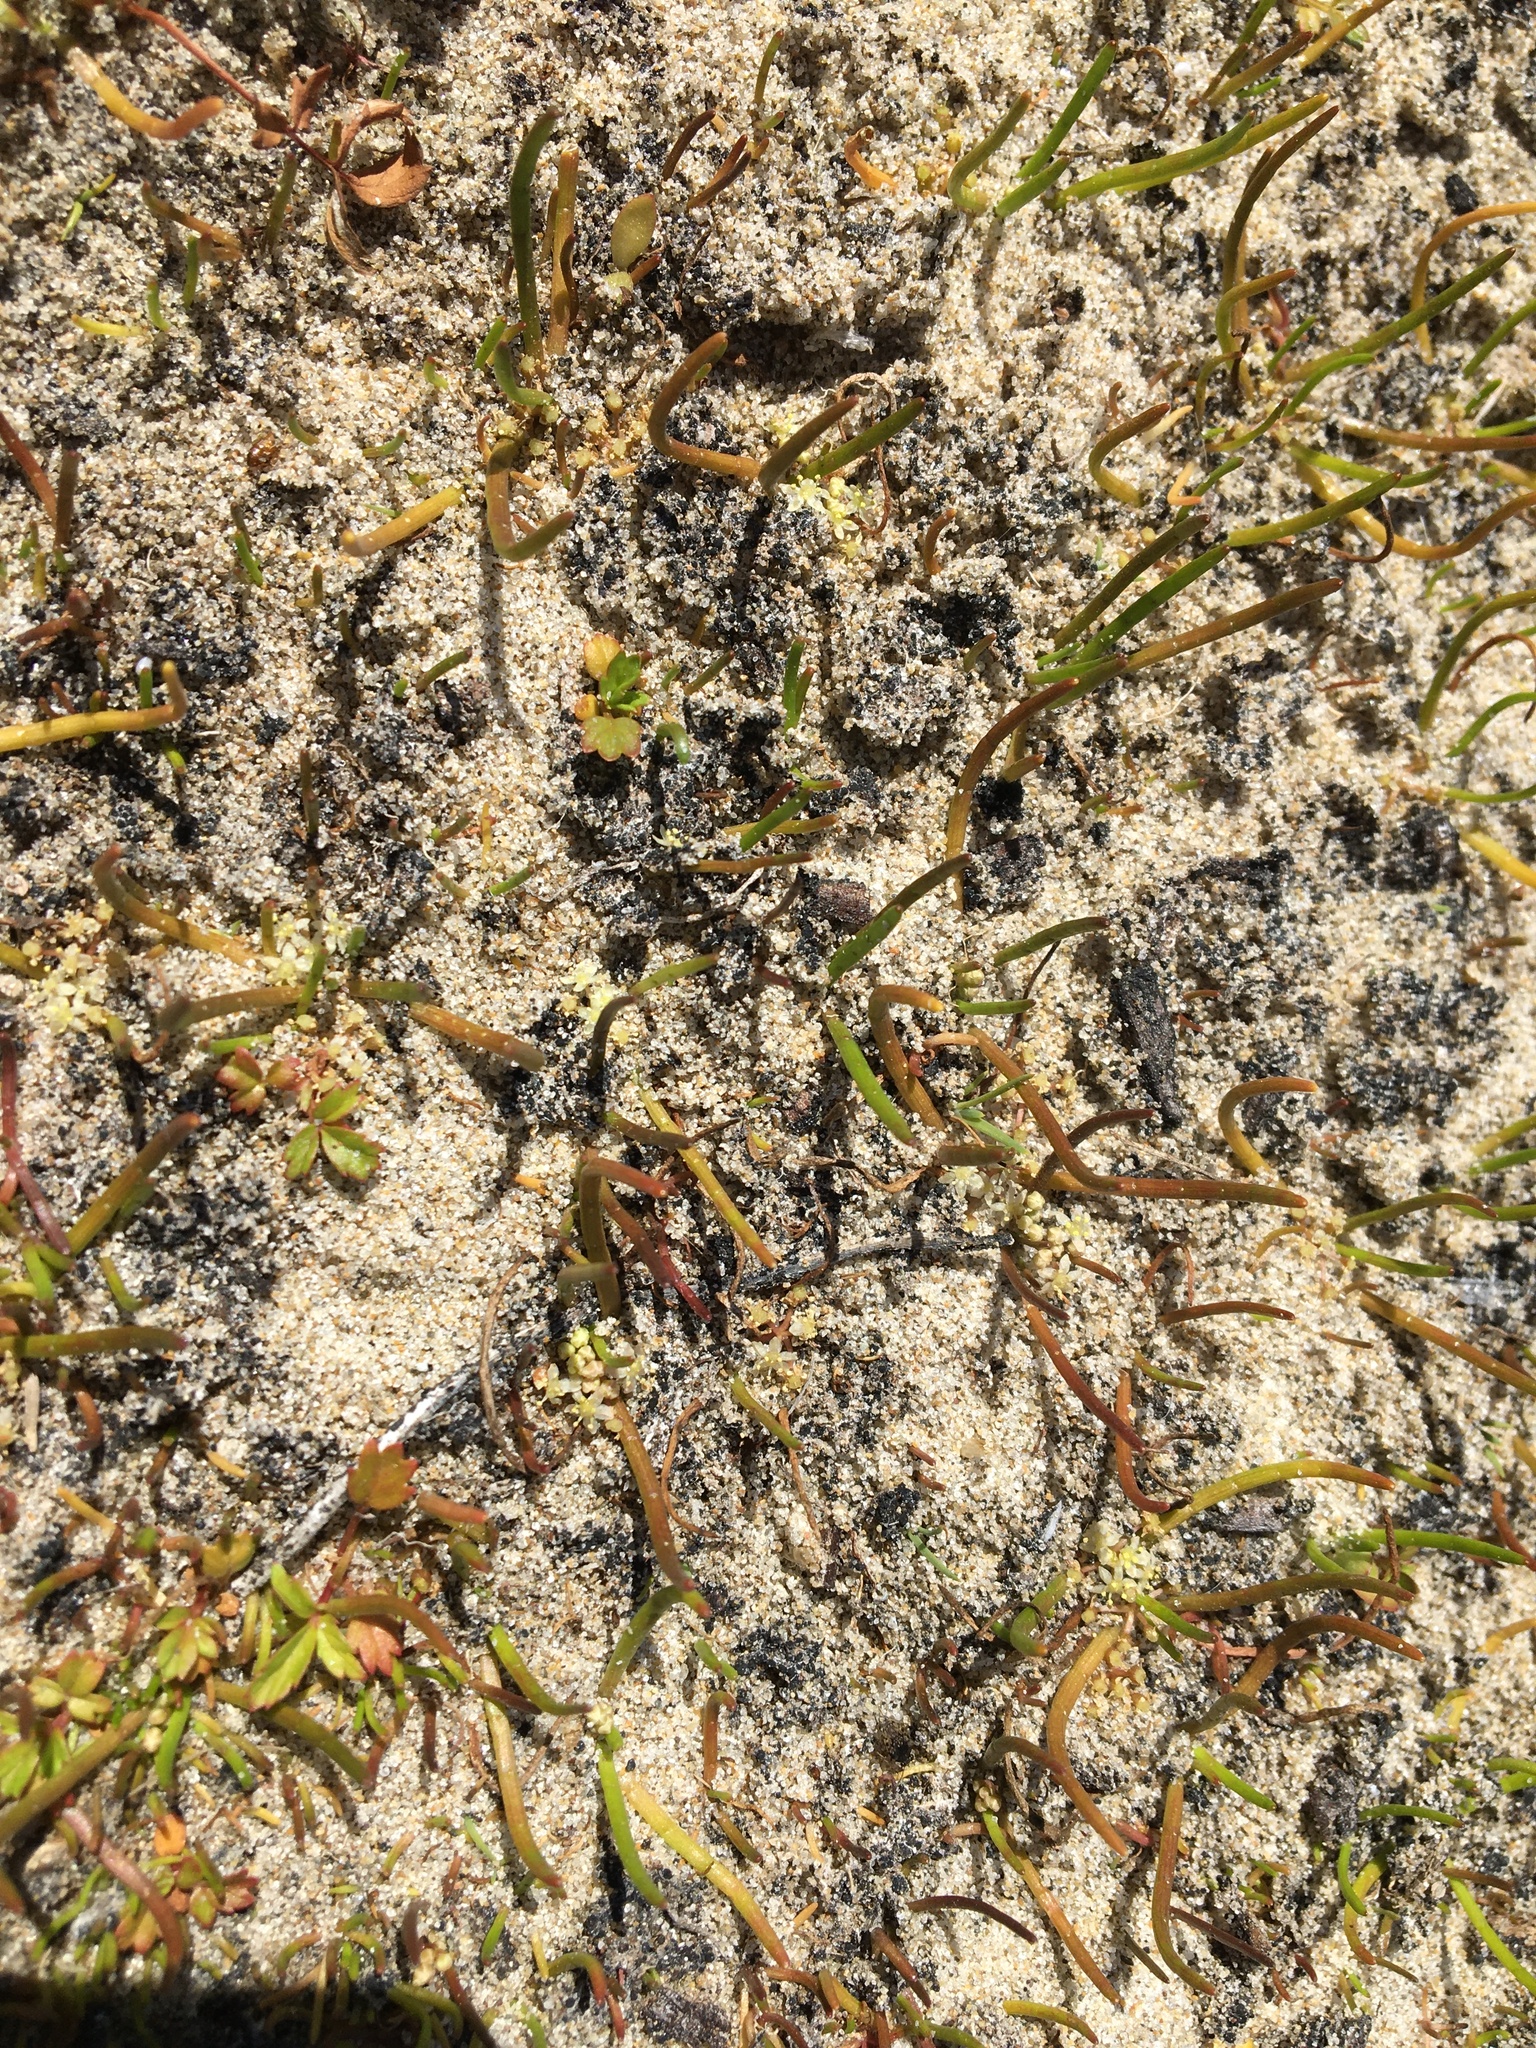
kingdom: Plantae
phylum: Tracheophyta
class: Magnoliopsida
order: Apiales
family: Apiaceae
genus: Lilaeopsis
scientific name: Lilaeopsis occidentalis
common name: Western grasswort
